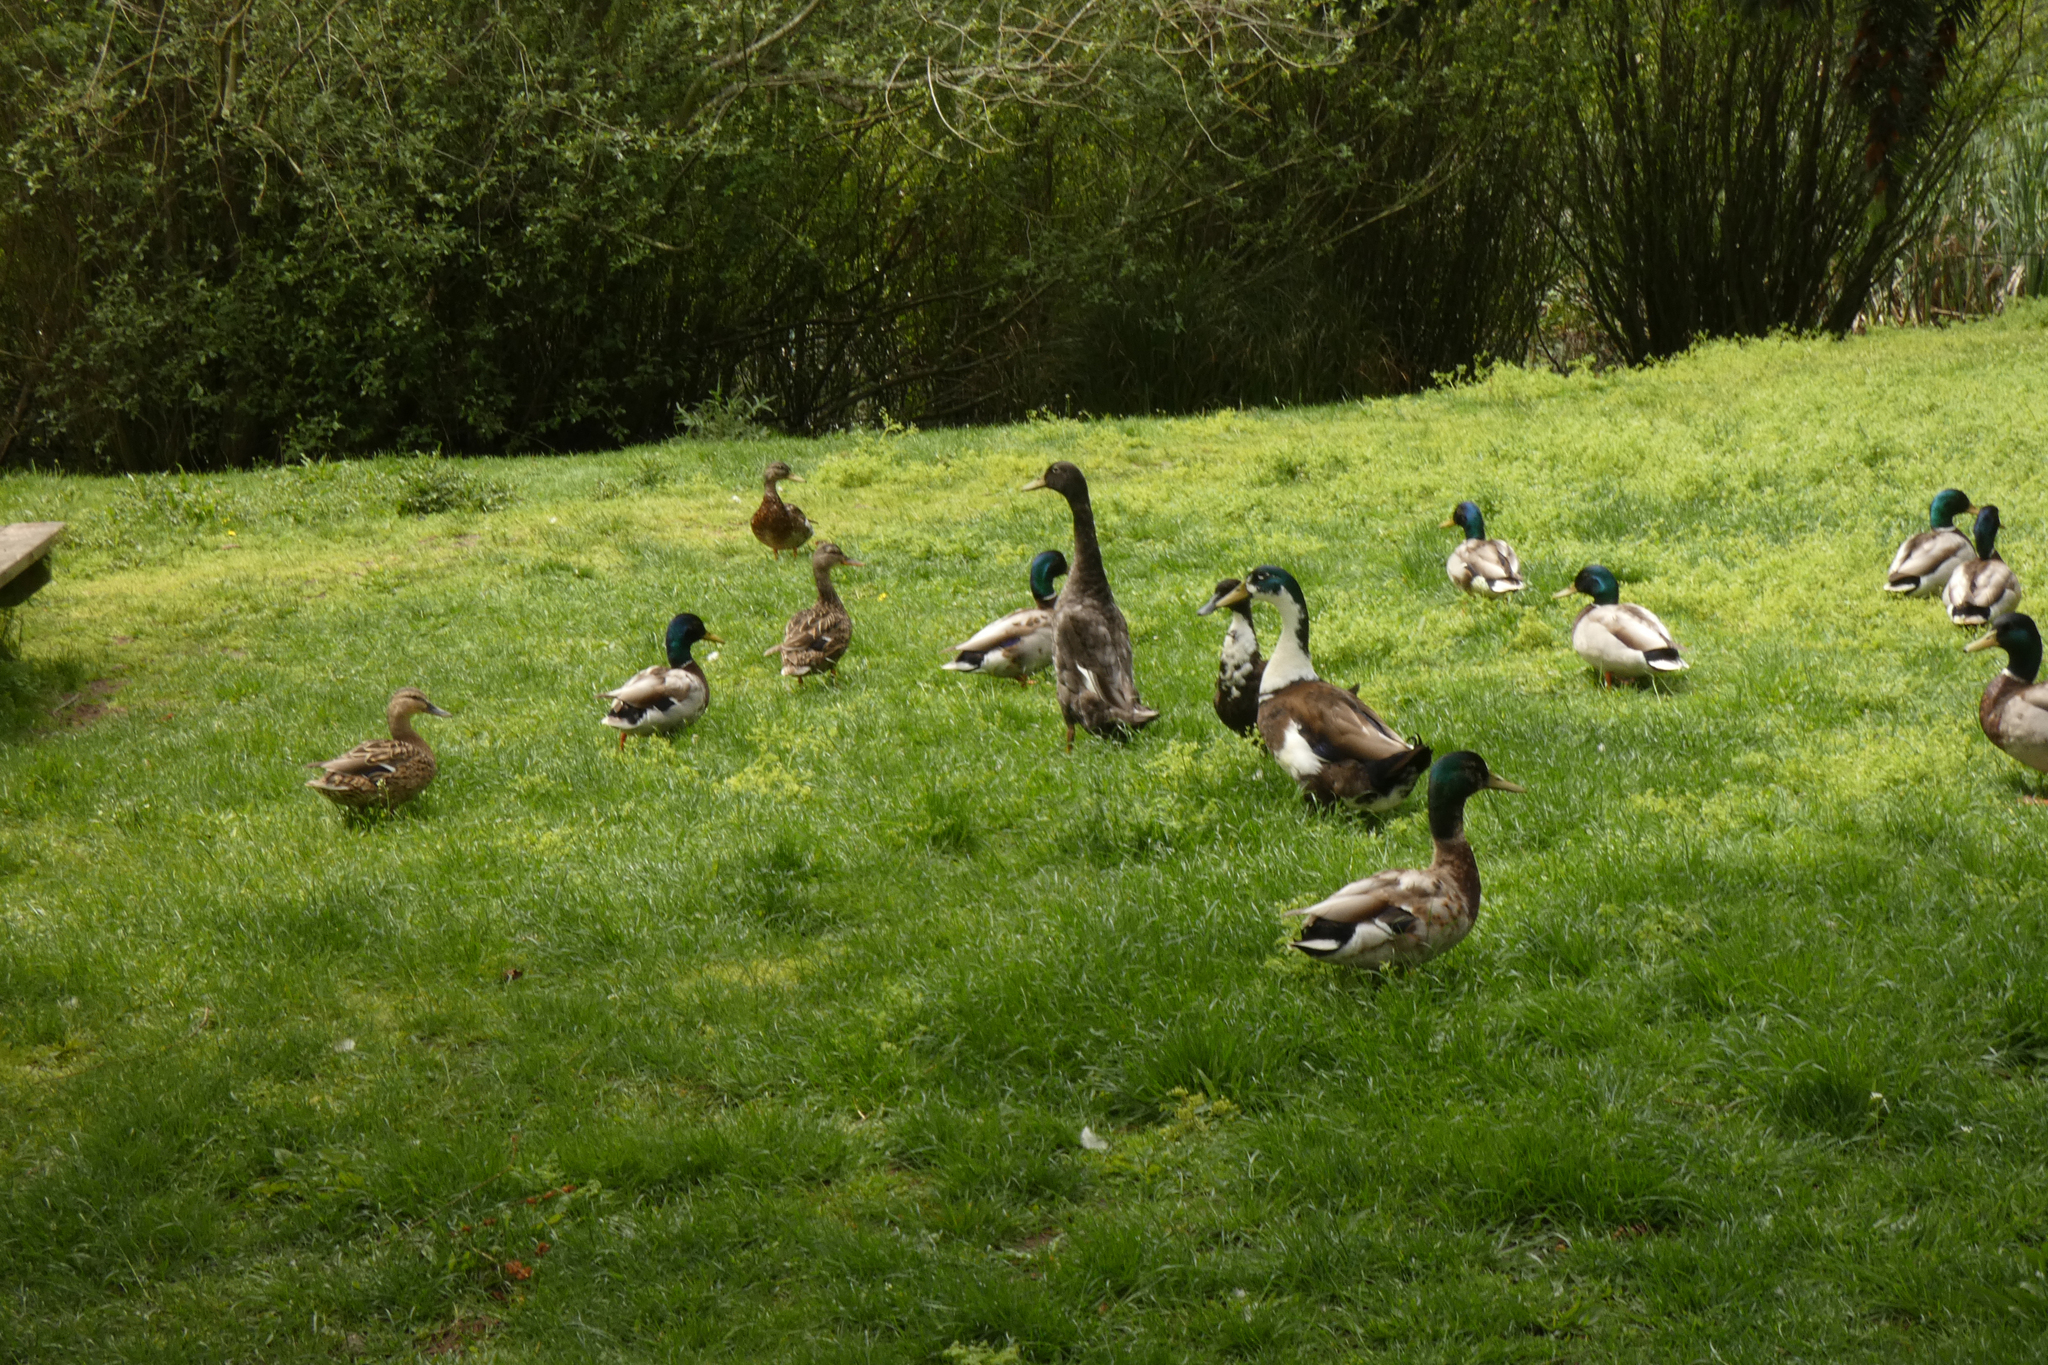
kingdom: Animalia
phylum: Chordata
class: Aves
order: Anseriformes
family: Anatidae
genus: Anas
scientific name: Anas platyrhynchos
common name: Mallard
